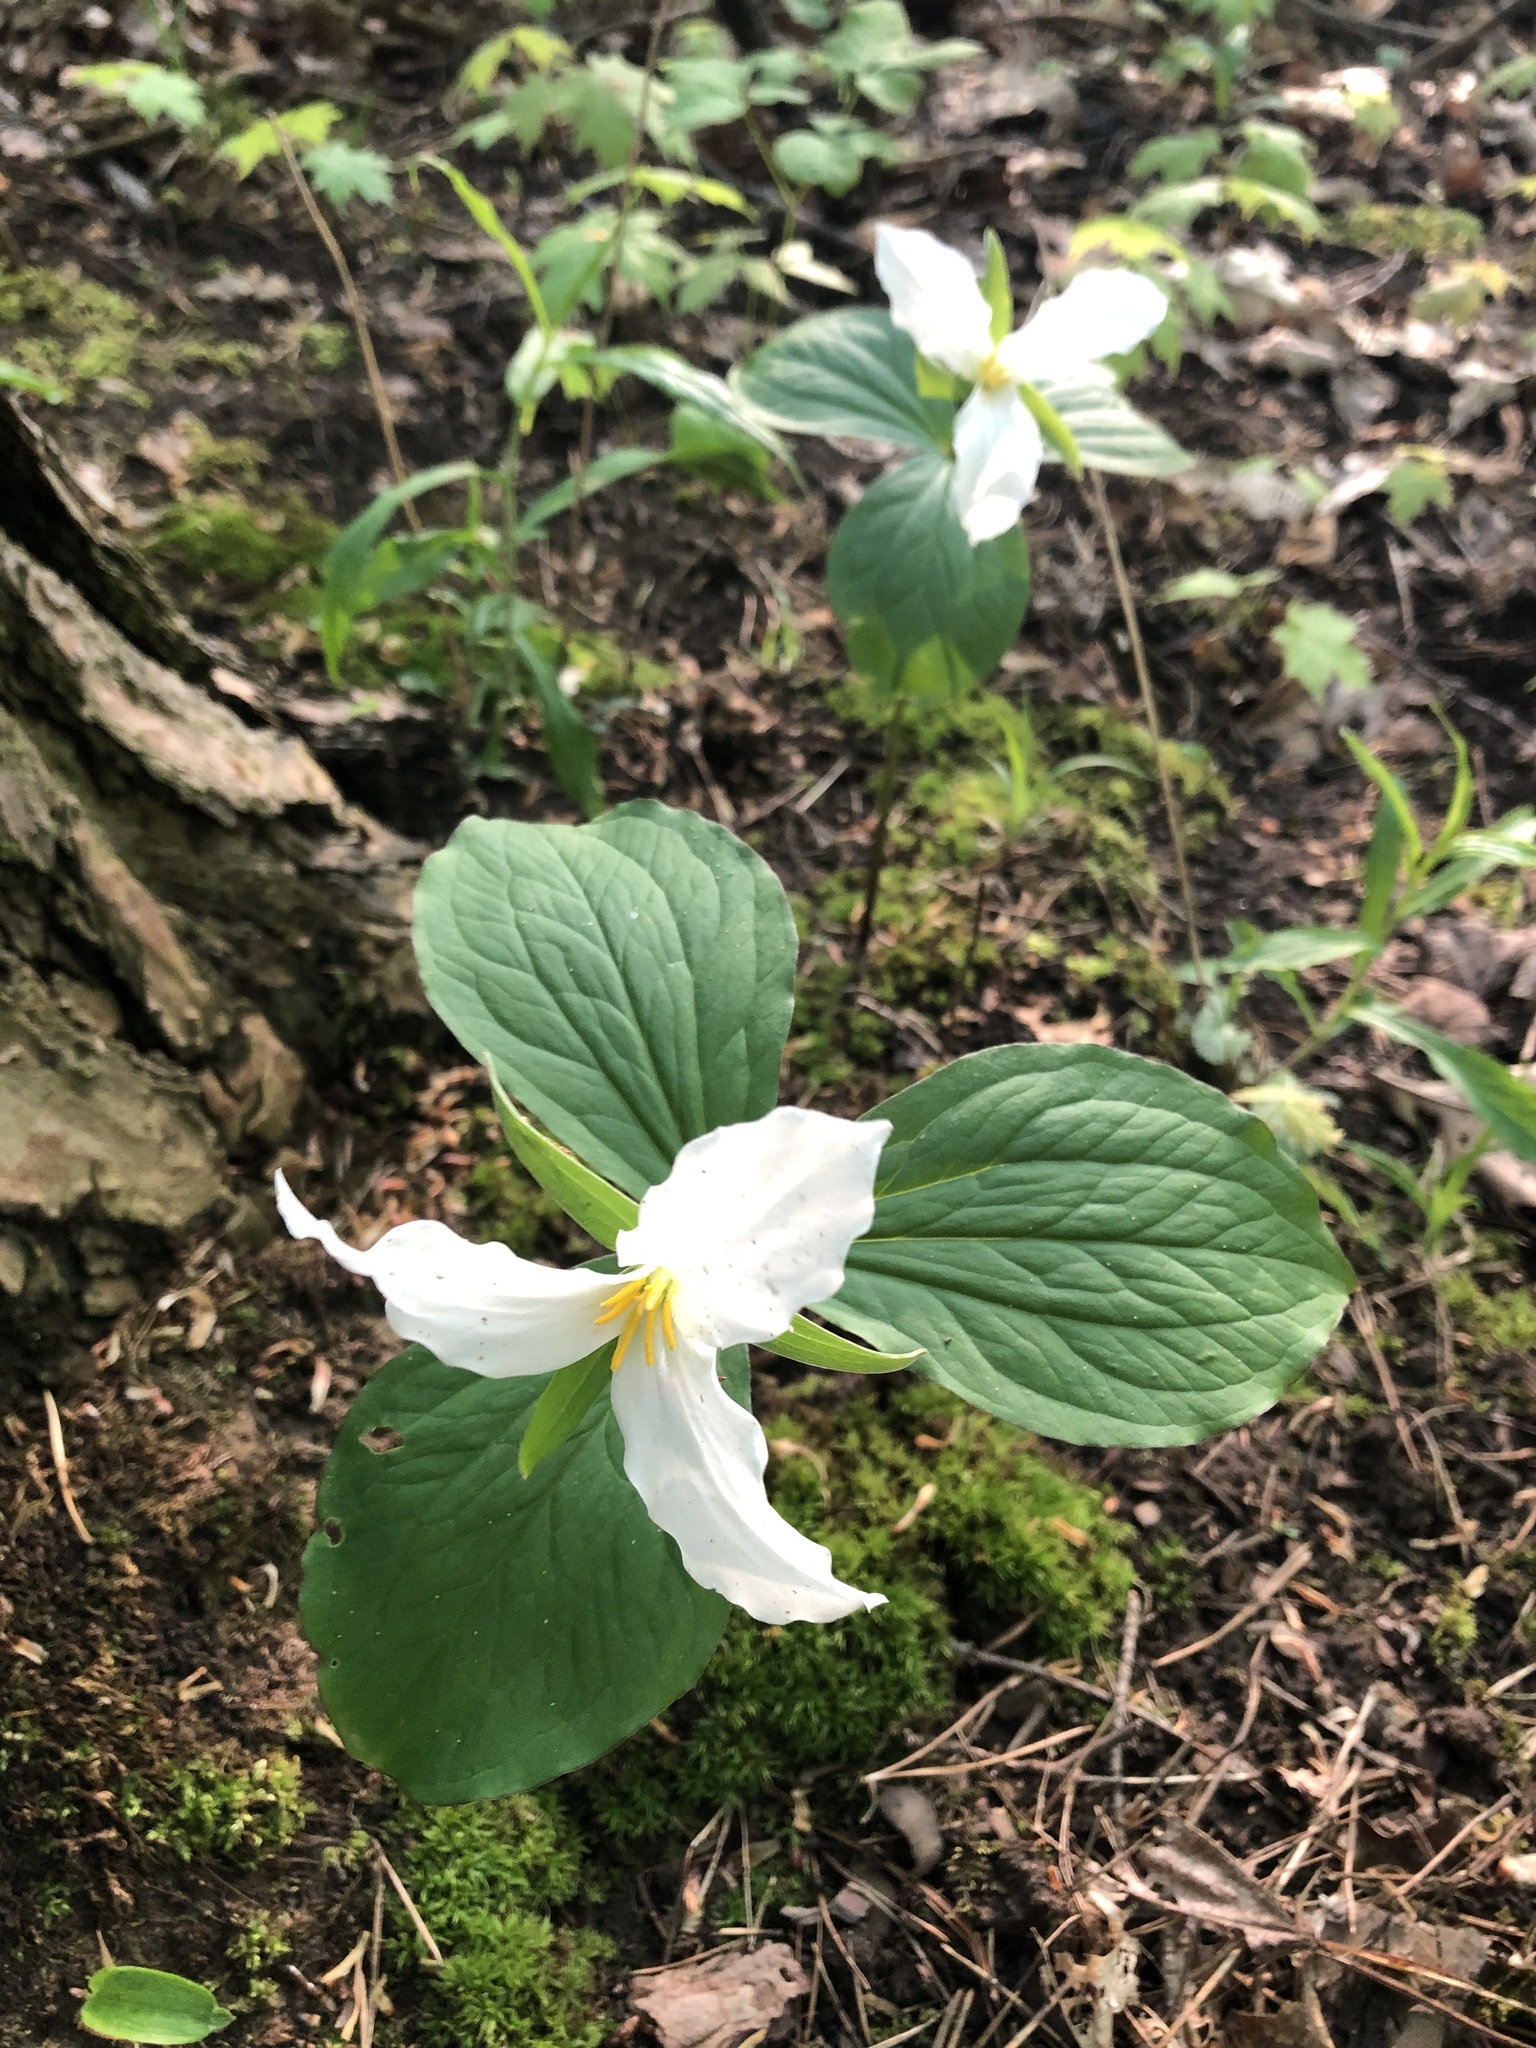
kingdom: Plantae
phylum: Tracheophyta
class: Liliopsida
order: Liliales
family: Melanthiaceae
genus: Trillium
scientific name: Trillium grandiflorum
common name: Great white trillium
